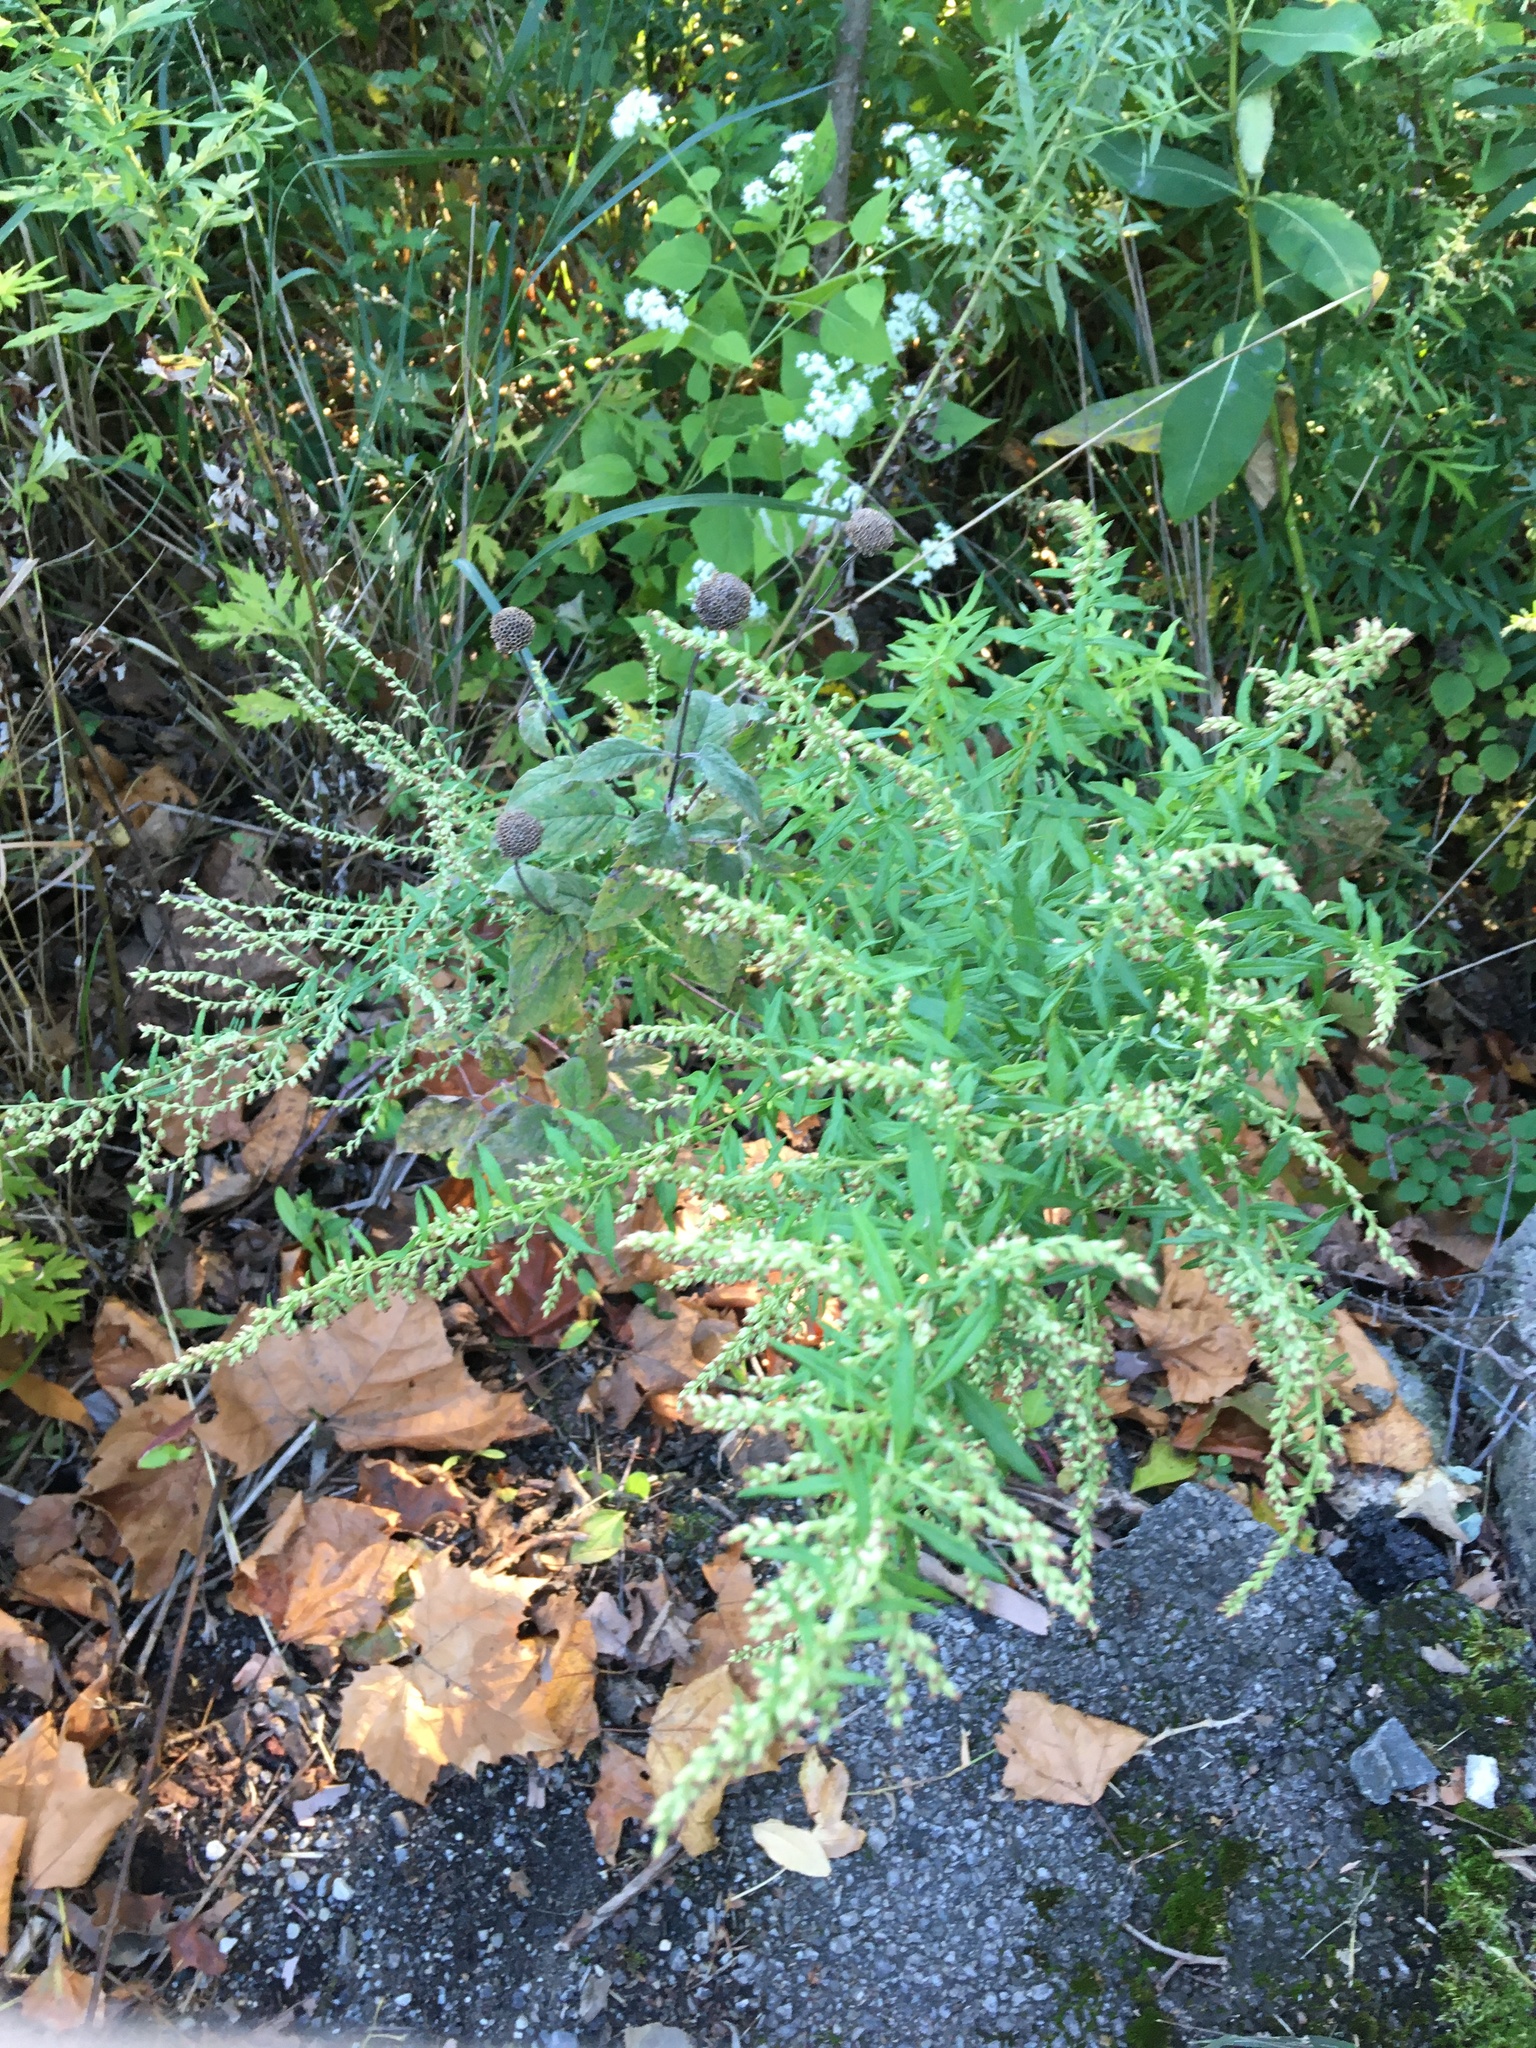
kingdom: Plantae
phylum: Tracheophyta
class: Magnoliopsida
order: Asterales
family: Asteraceae
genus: Artemisia
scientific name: Artemisia vulgaris
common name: Mugwort
